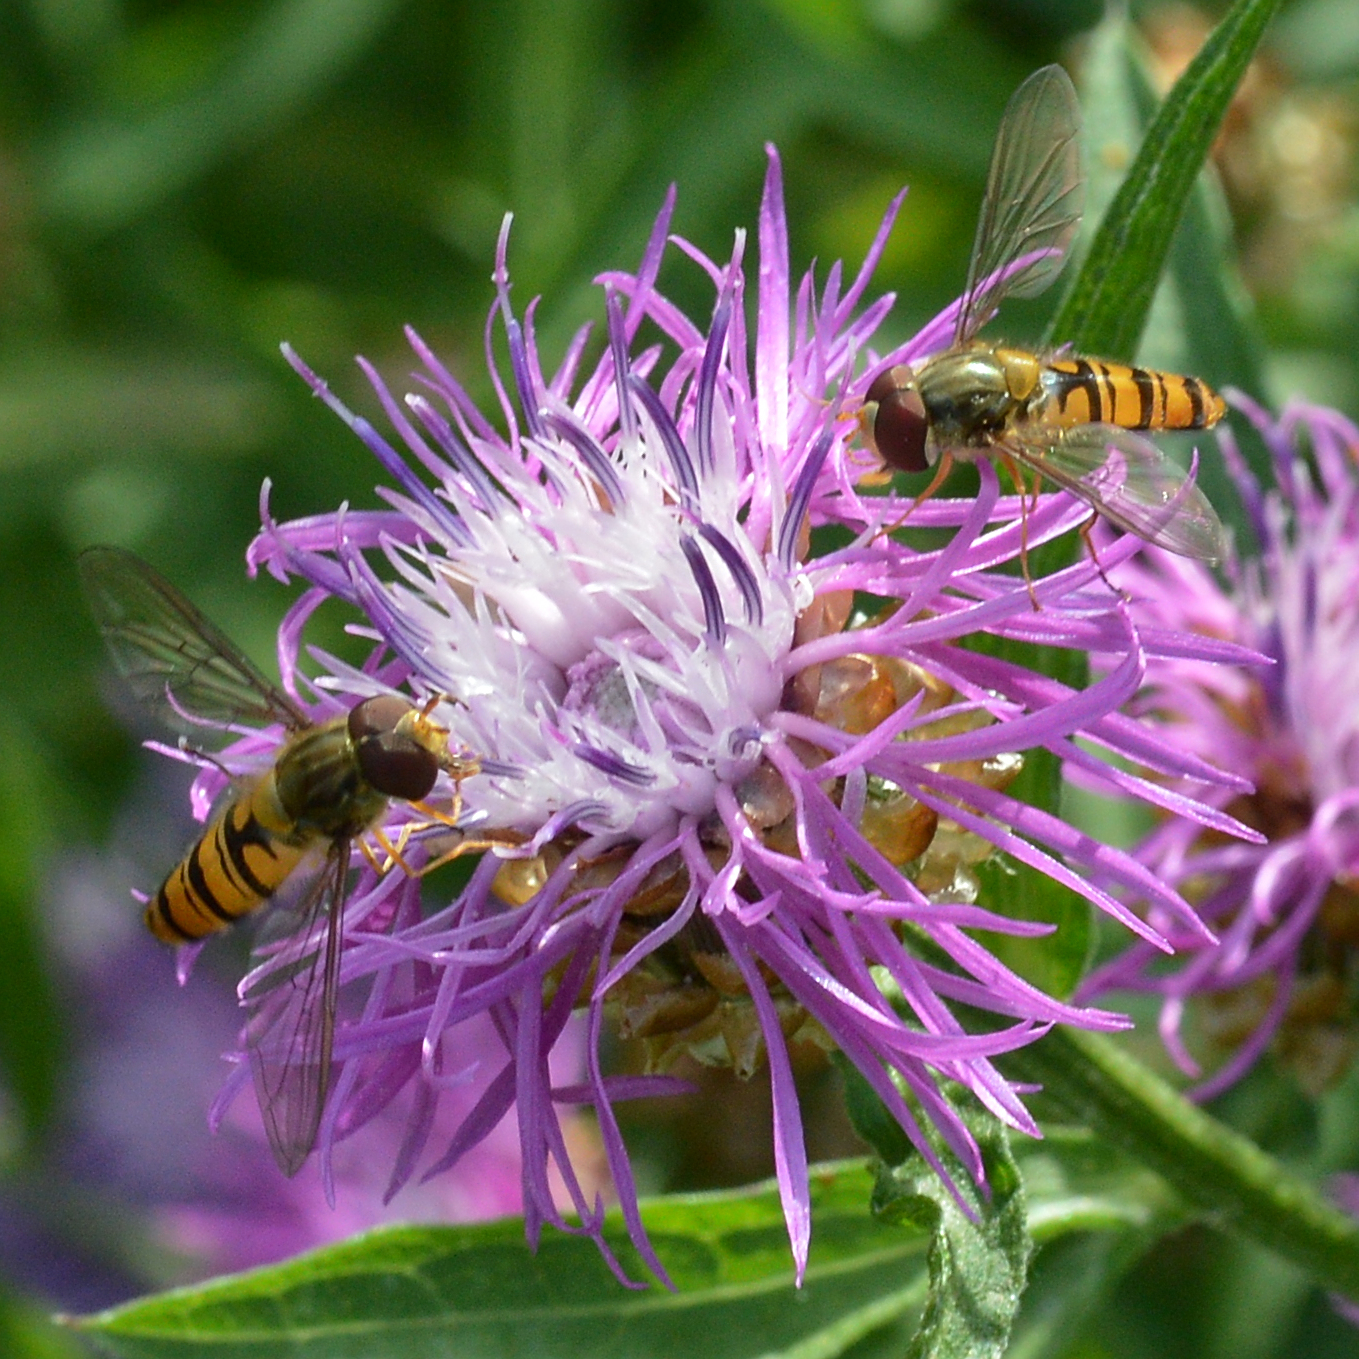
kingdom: Animalia
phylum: Arthropoda
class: Insecta
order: Diptera
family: Syrphidae
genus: Episyrphus
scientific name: Episyrphus balteatus
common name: Marmalade hoverfly
